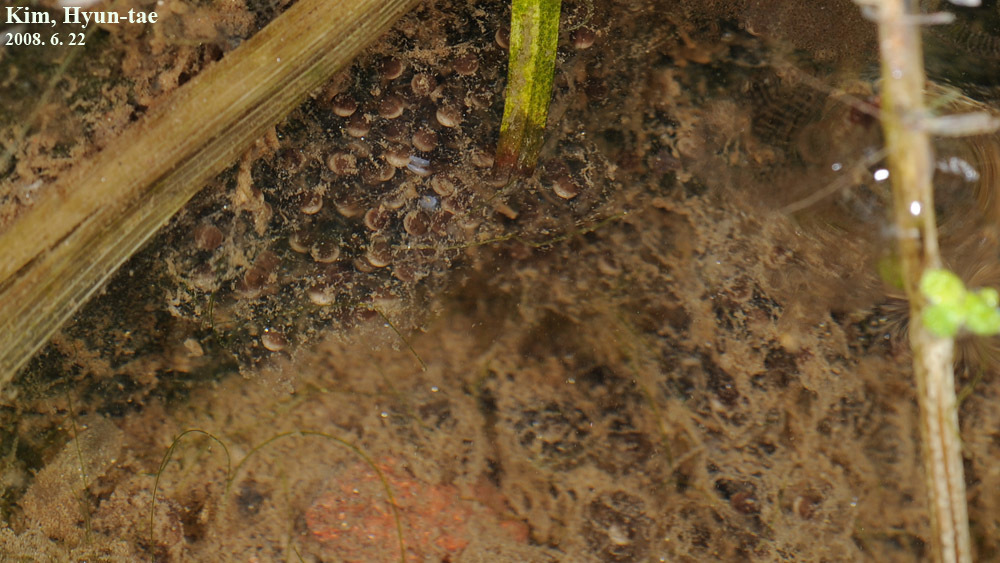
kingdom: Animalia
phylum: Chordata
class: Amphibia
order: Anura
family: Ranidae
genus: Glandirana
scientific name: Glandirana emeljanovi
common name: Northeast china rough-skinned frog
